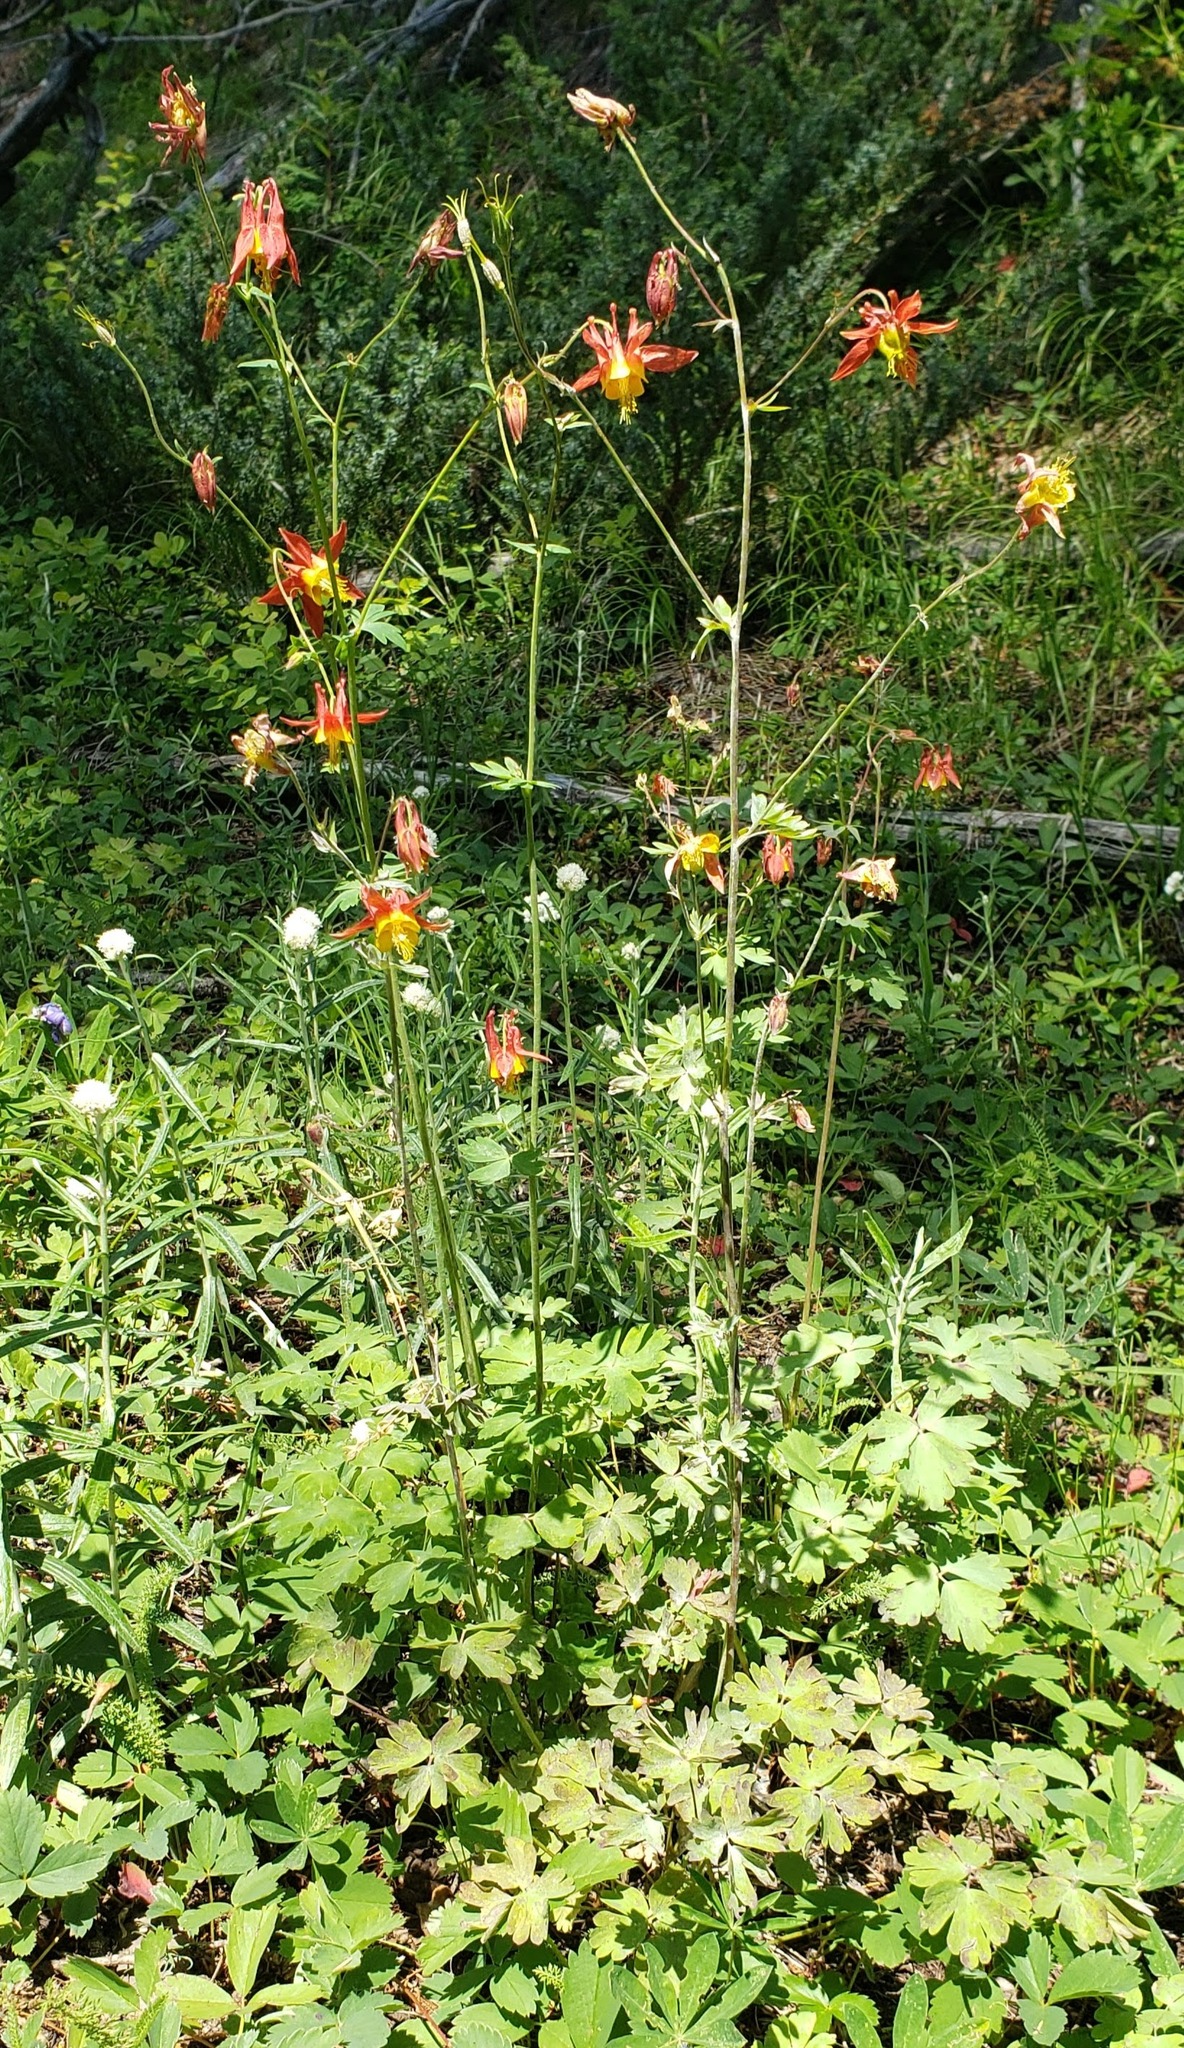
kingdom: Plantae
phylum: Tracheophyta
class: Magnoliopsida
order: Ranunculales
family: Ranunculaceae
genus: Aquilegia
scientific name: Aquilegia formosa
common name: Sitka columbine
